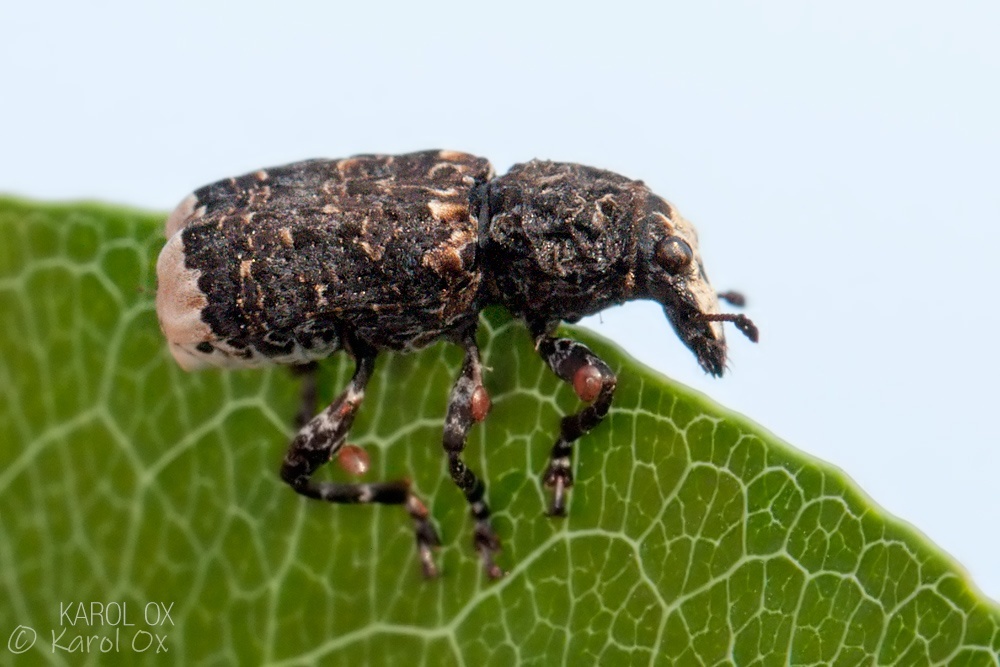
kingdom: Animalia
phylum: Arthropoda
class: Insecta
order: Coleoptera
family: Anthribidae
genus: Platyrhinus
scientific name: Platyrhinus resinosus
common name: Cramp-ball fungus weevil
